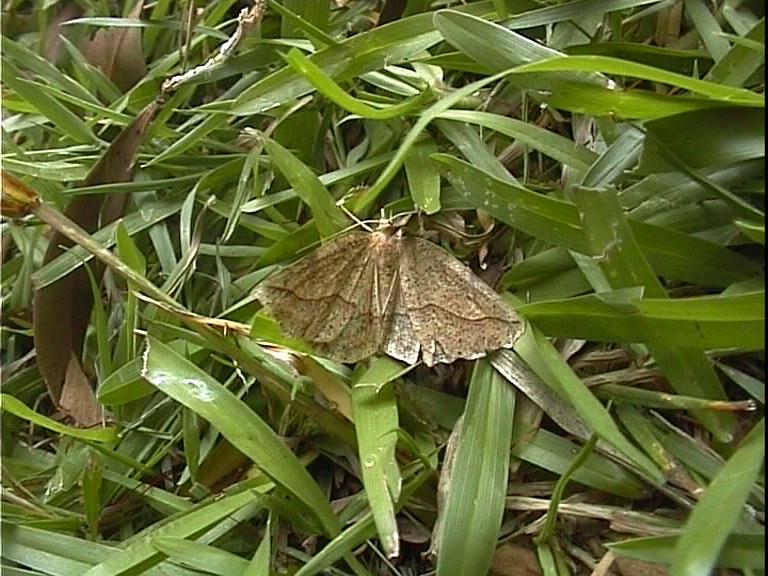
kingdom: Animalia
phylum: Arthropoda
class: Insecta
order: Lepidoptera
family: Geometridae
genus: Ischalis
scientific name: Ischalis variabilis
